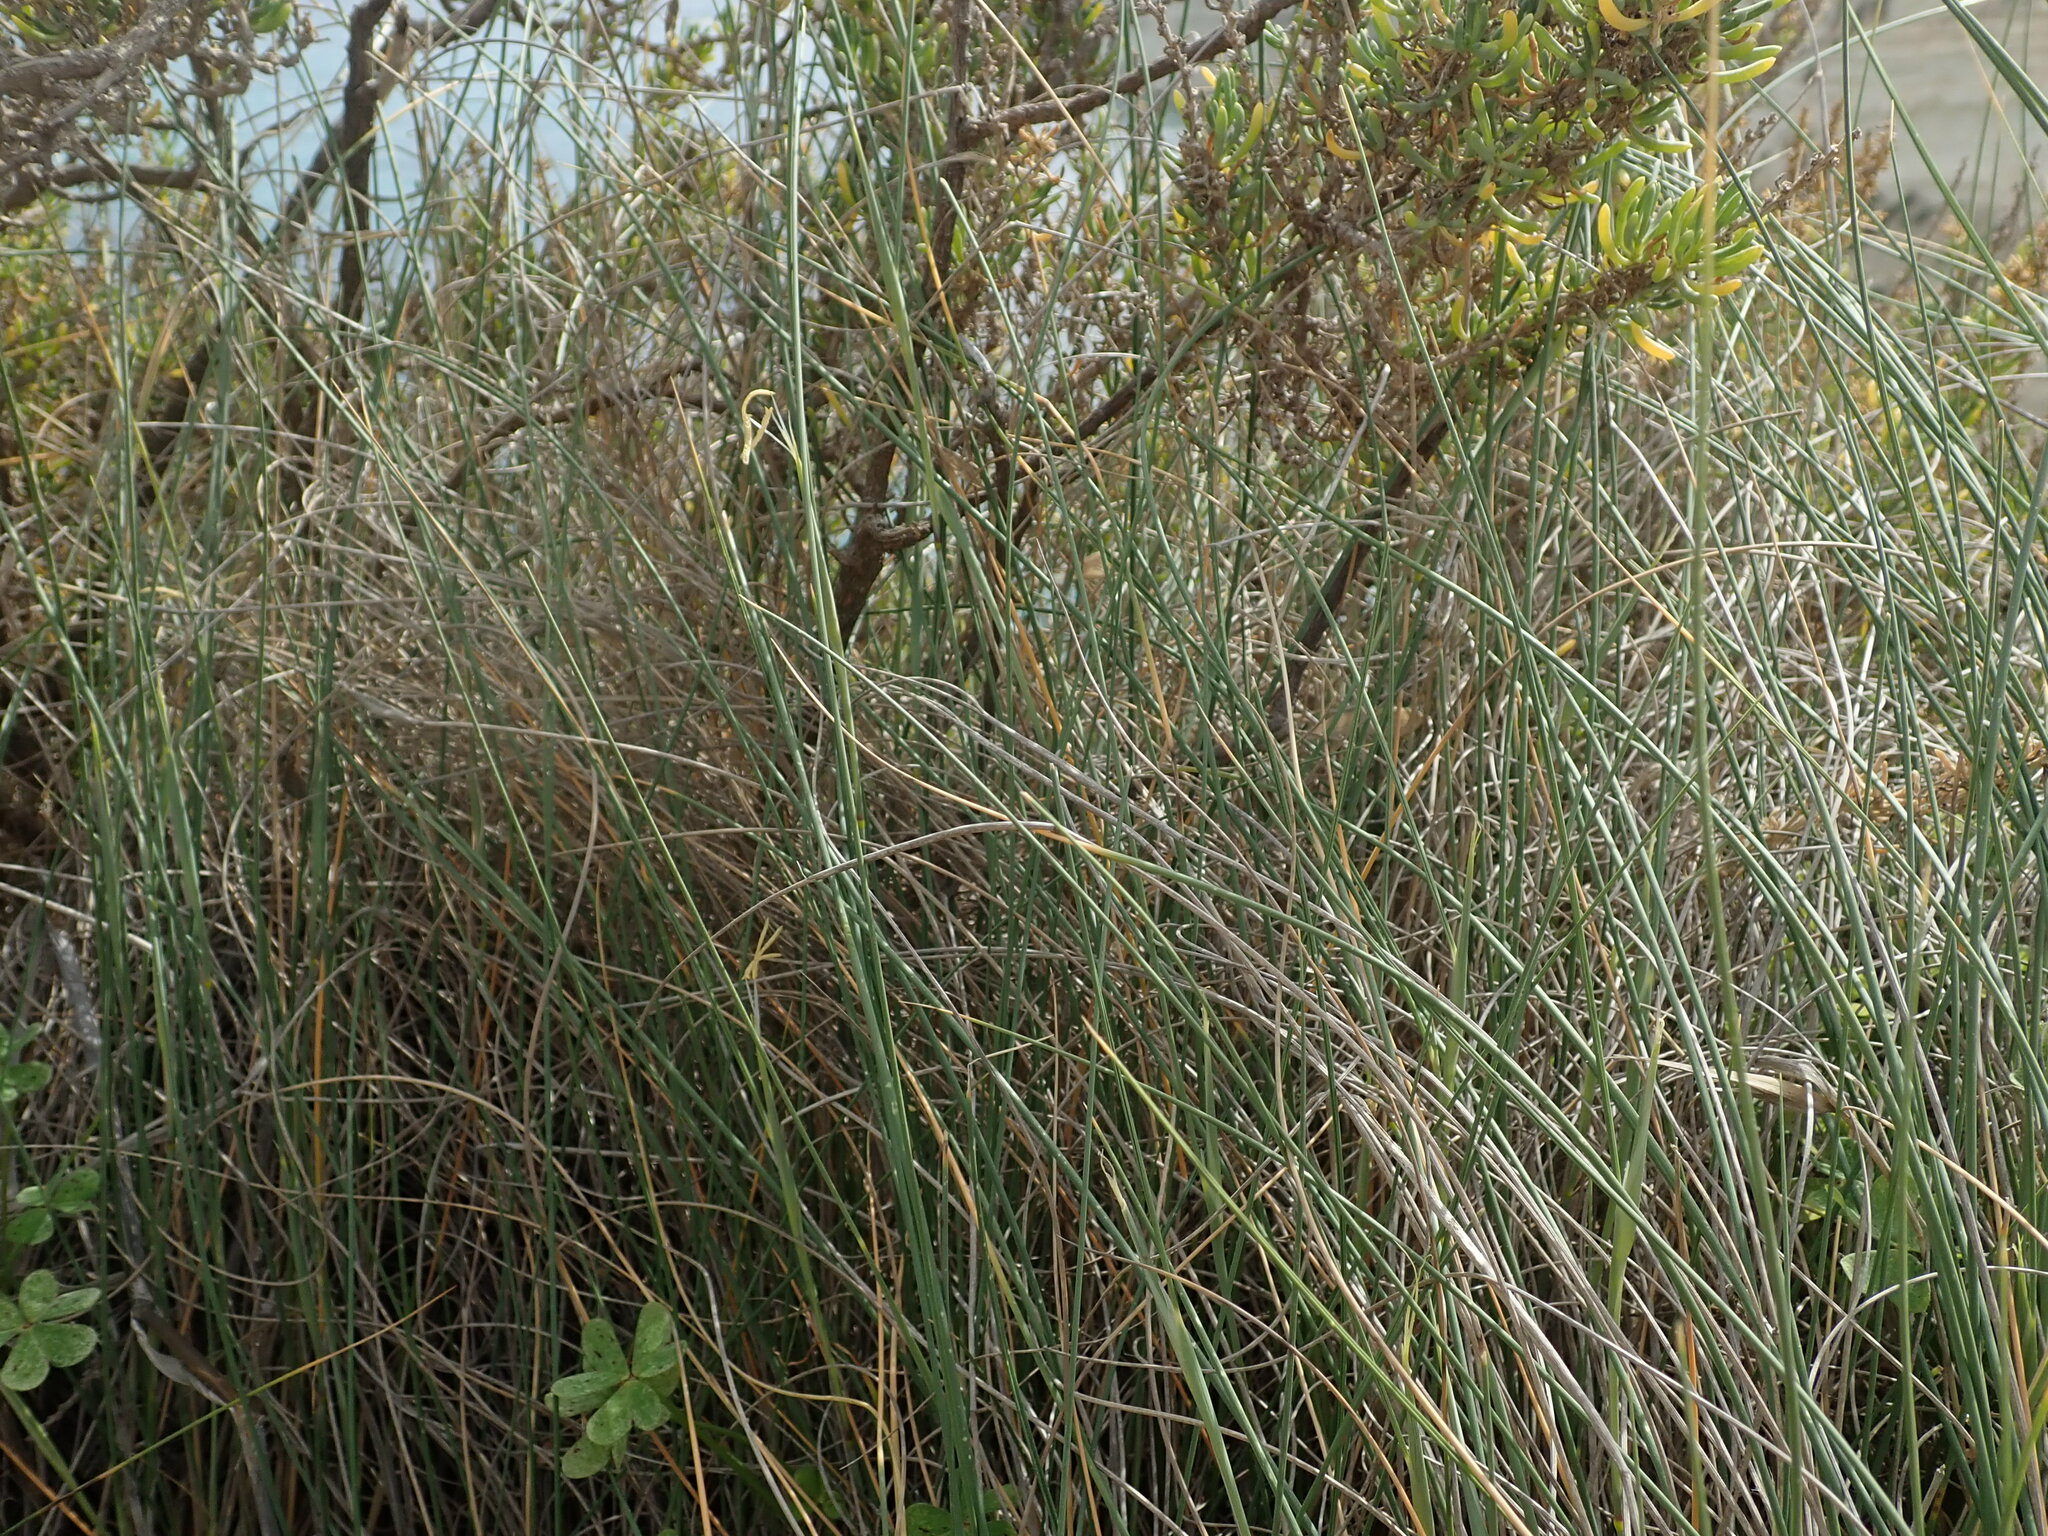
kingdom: Plantae
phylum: Tracheophyta
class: Liliopsida
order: Poales
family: Poaceae
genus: Lygeum
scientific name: Lygeum spartum
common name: Albardine
